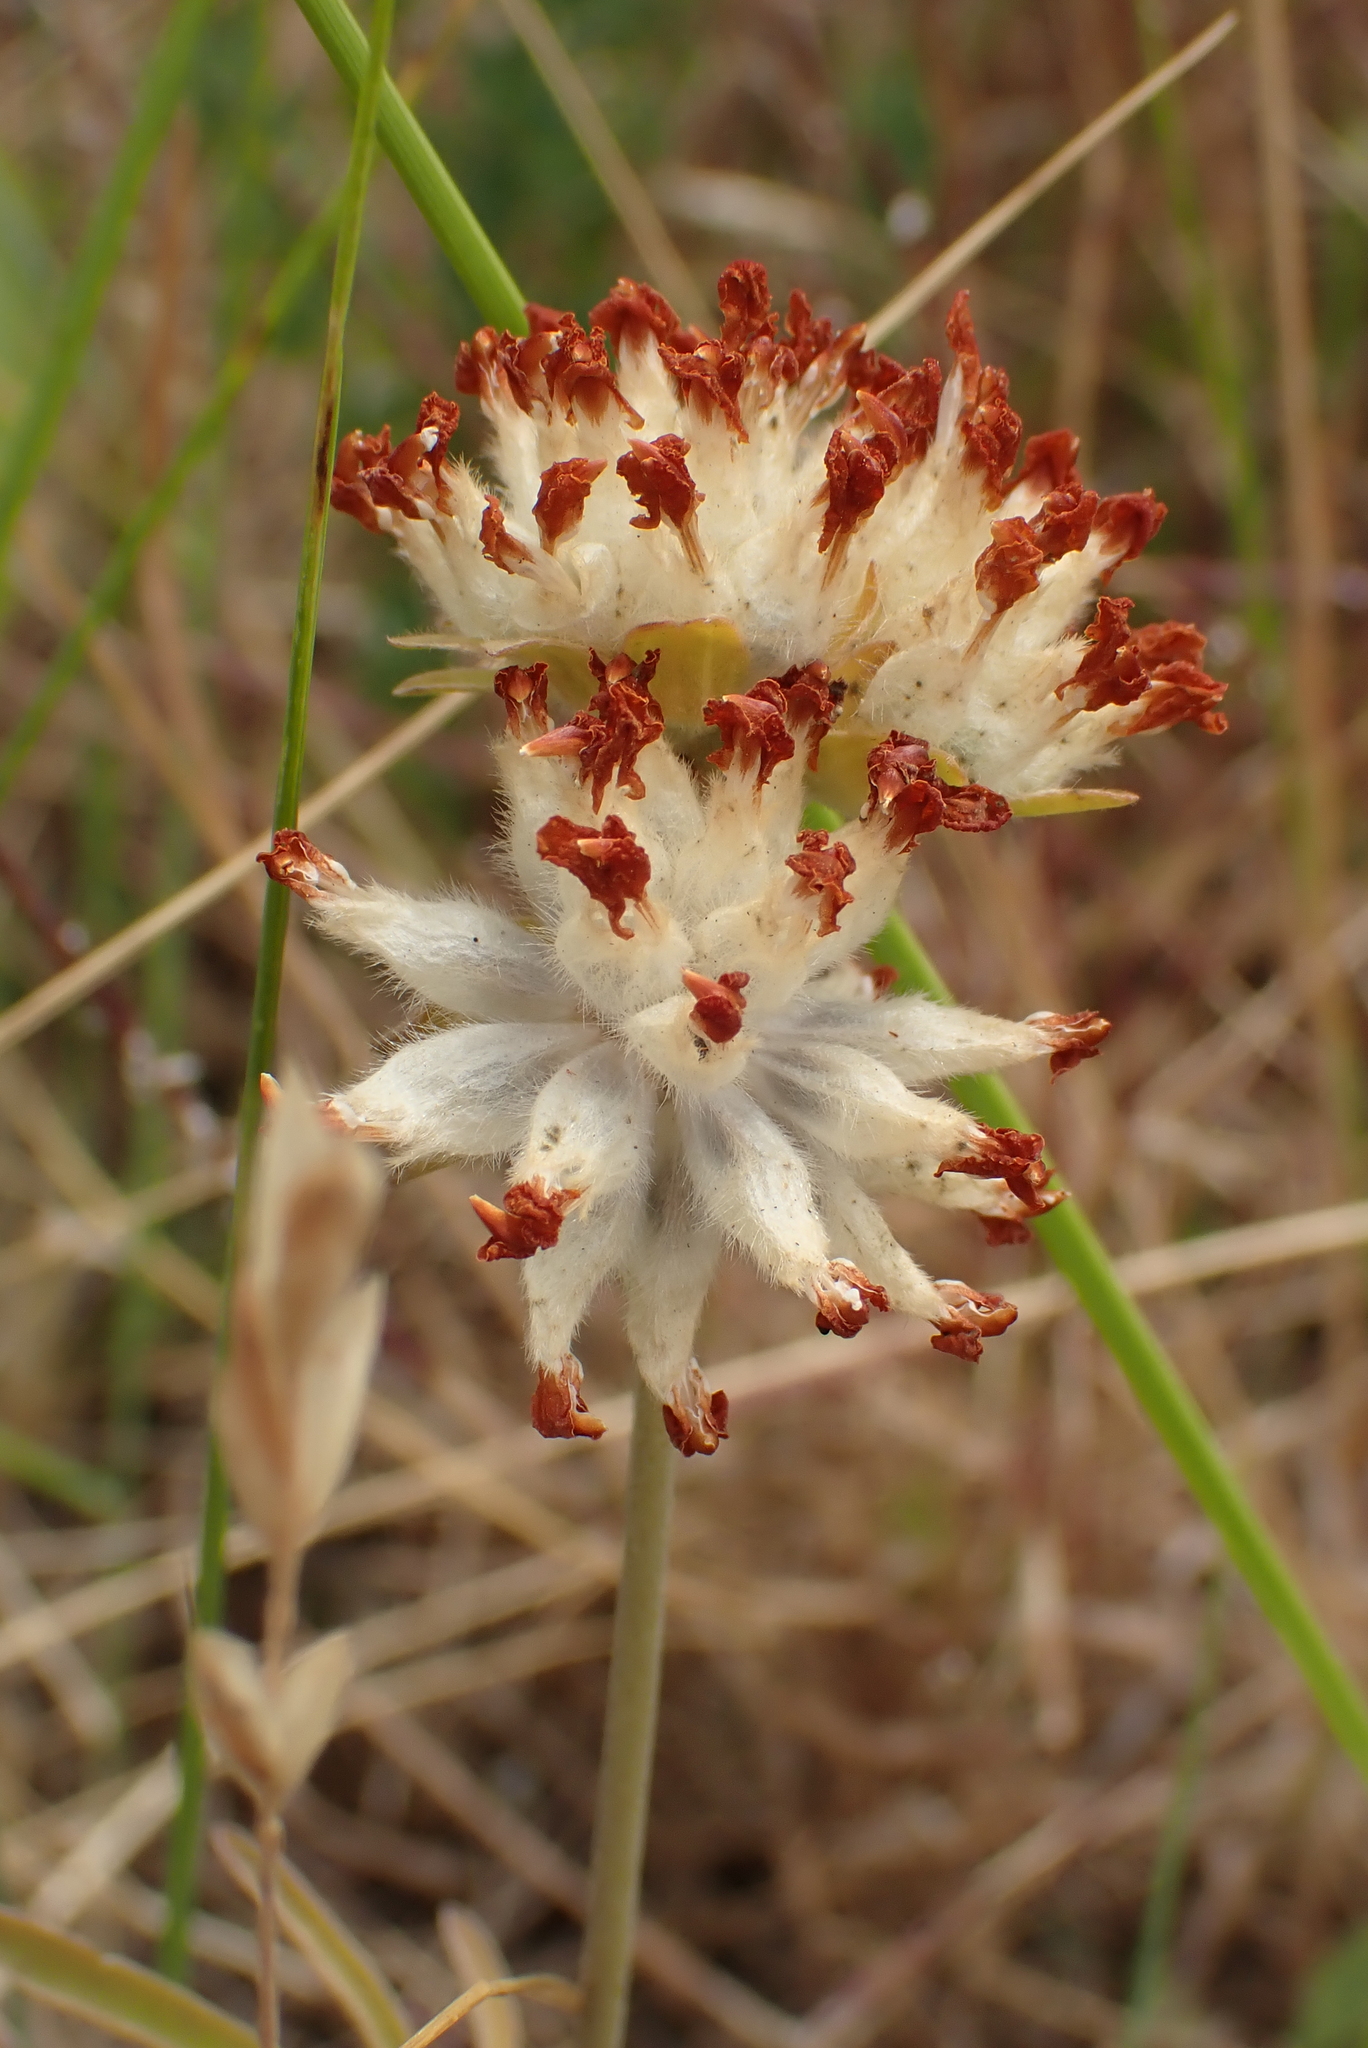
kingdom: Plantae
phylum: Tracheophyta
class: Magnoliopsida
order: Fabales
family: Fabaceae
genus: Anthyllis
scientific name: Anthyllis vulneraria
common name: Kidney vetch
